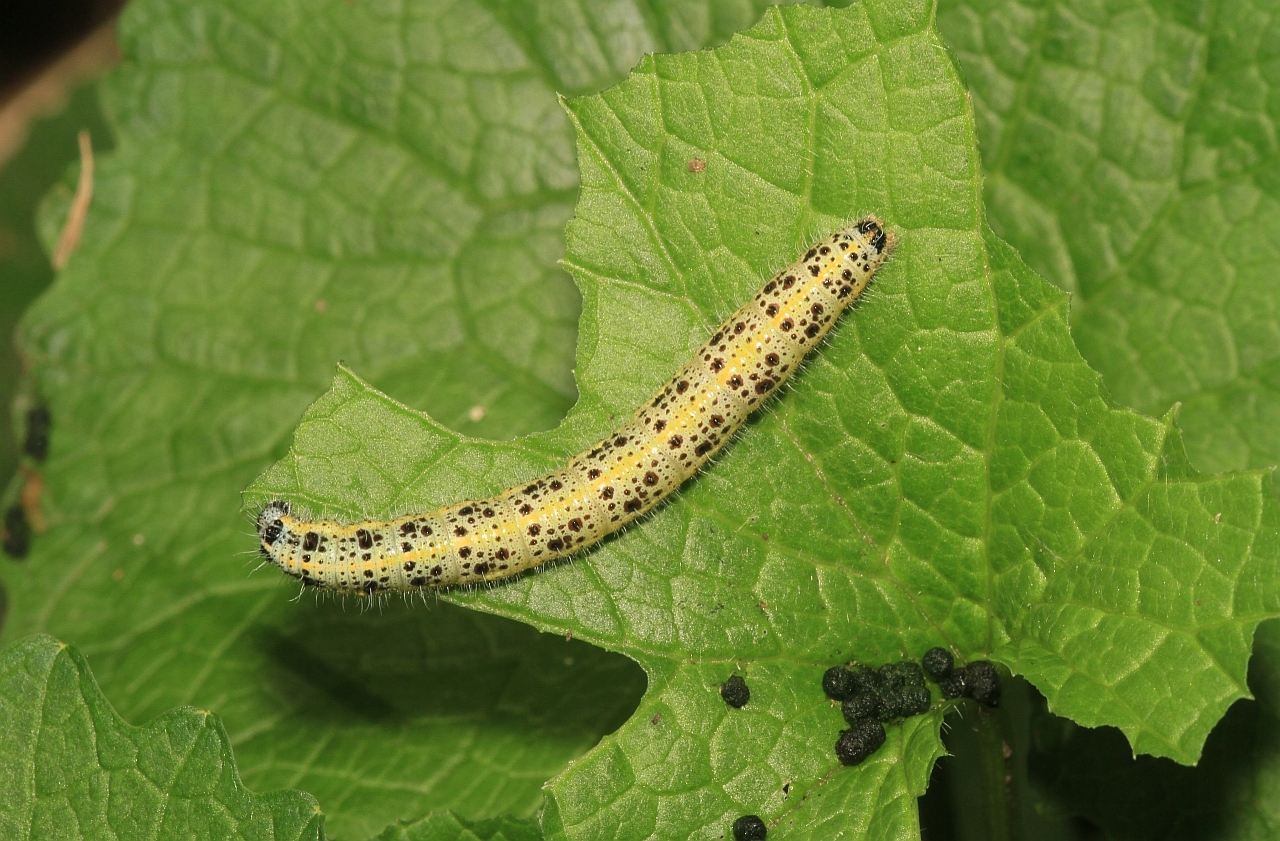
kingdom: Animalia
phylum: Arthropoda
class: Insecta
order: Lepidoptera
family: Pieridae
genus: Pieris
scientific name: Pieris brassicae
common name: Large white
